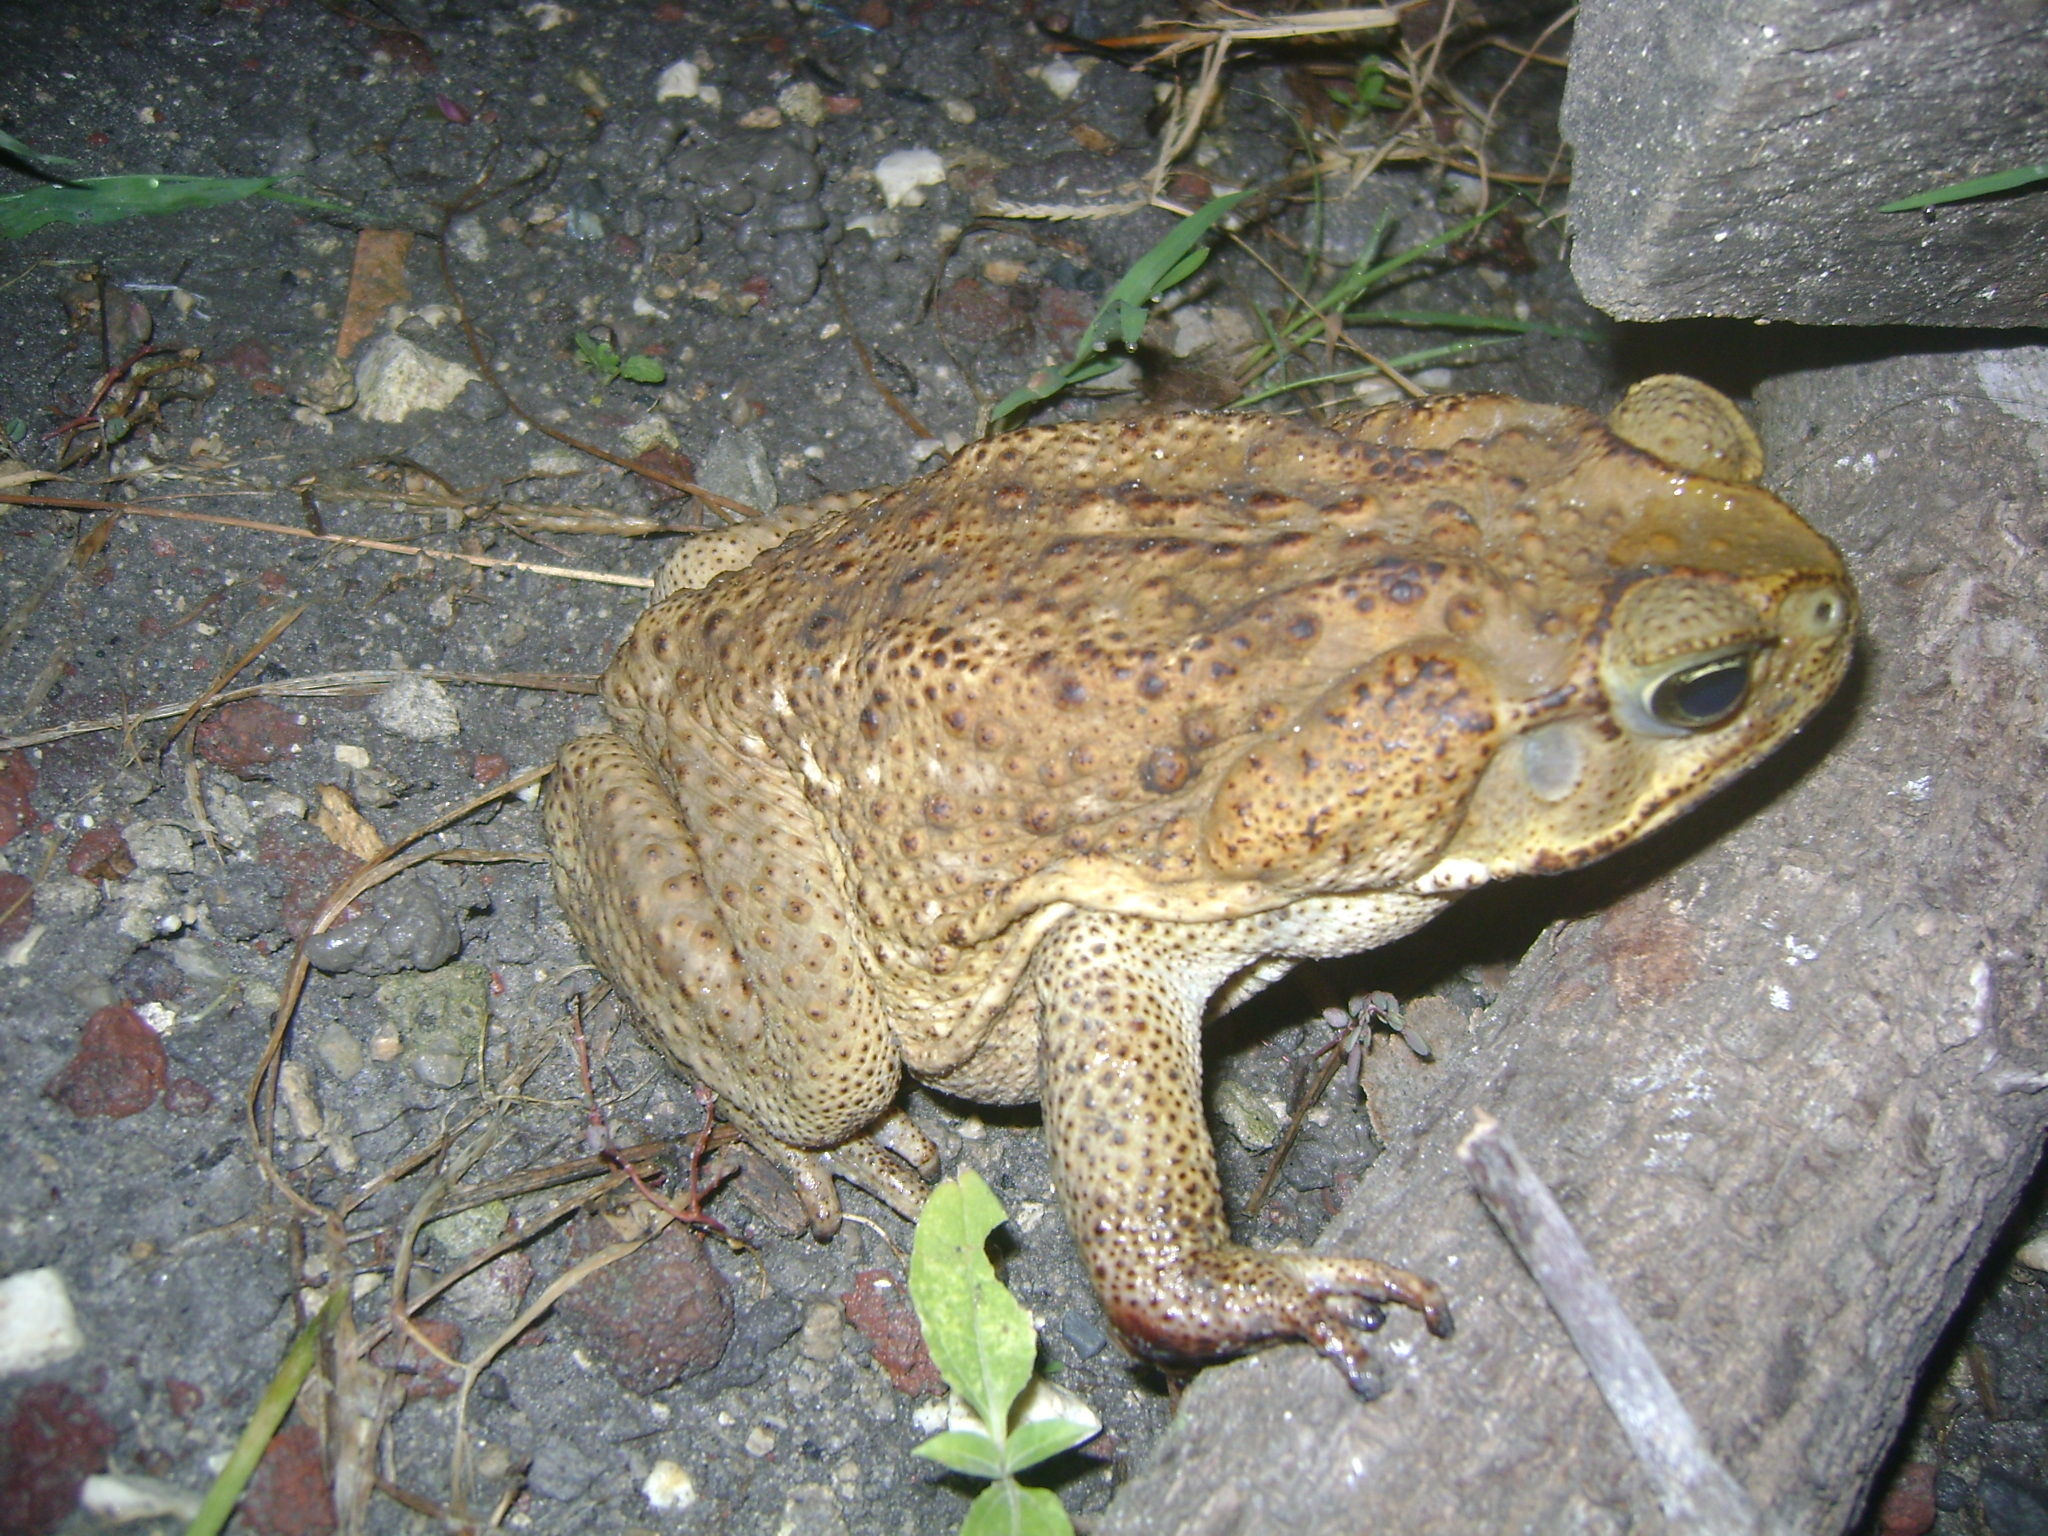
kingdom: Animalia
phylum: Chordata
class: Amphibia
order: Anura
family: Bufonidae
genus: Rhinella
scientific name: Rhinella horribilis
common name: Mesoamerican cane toad
